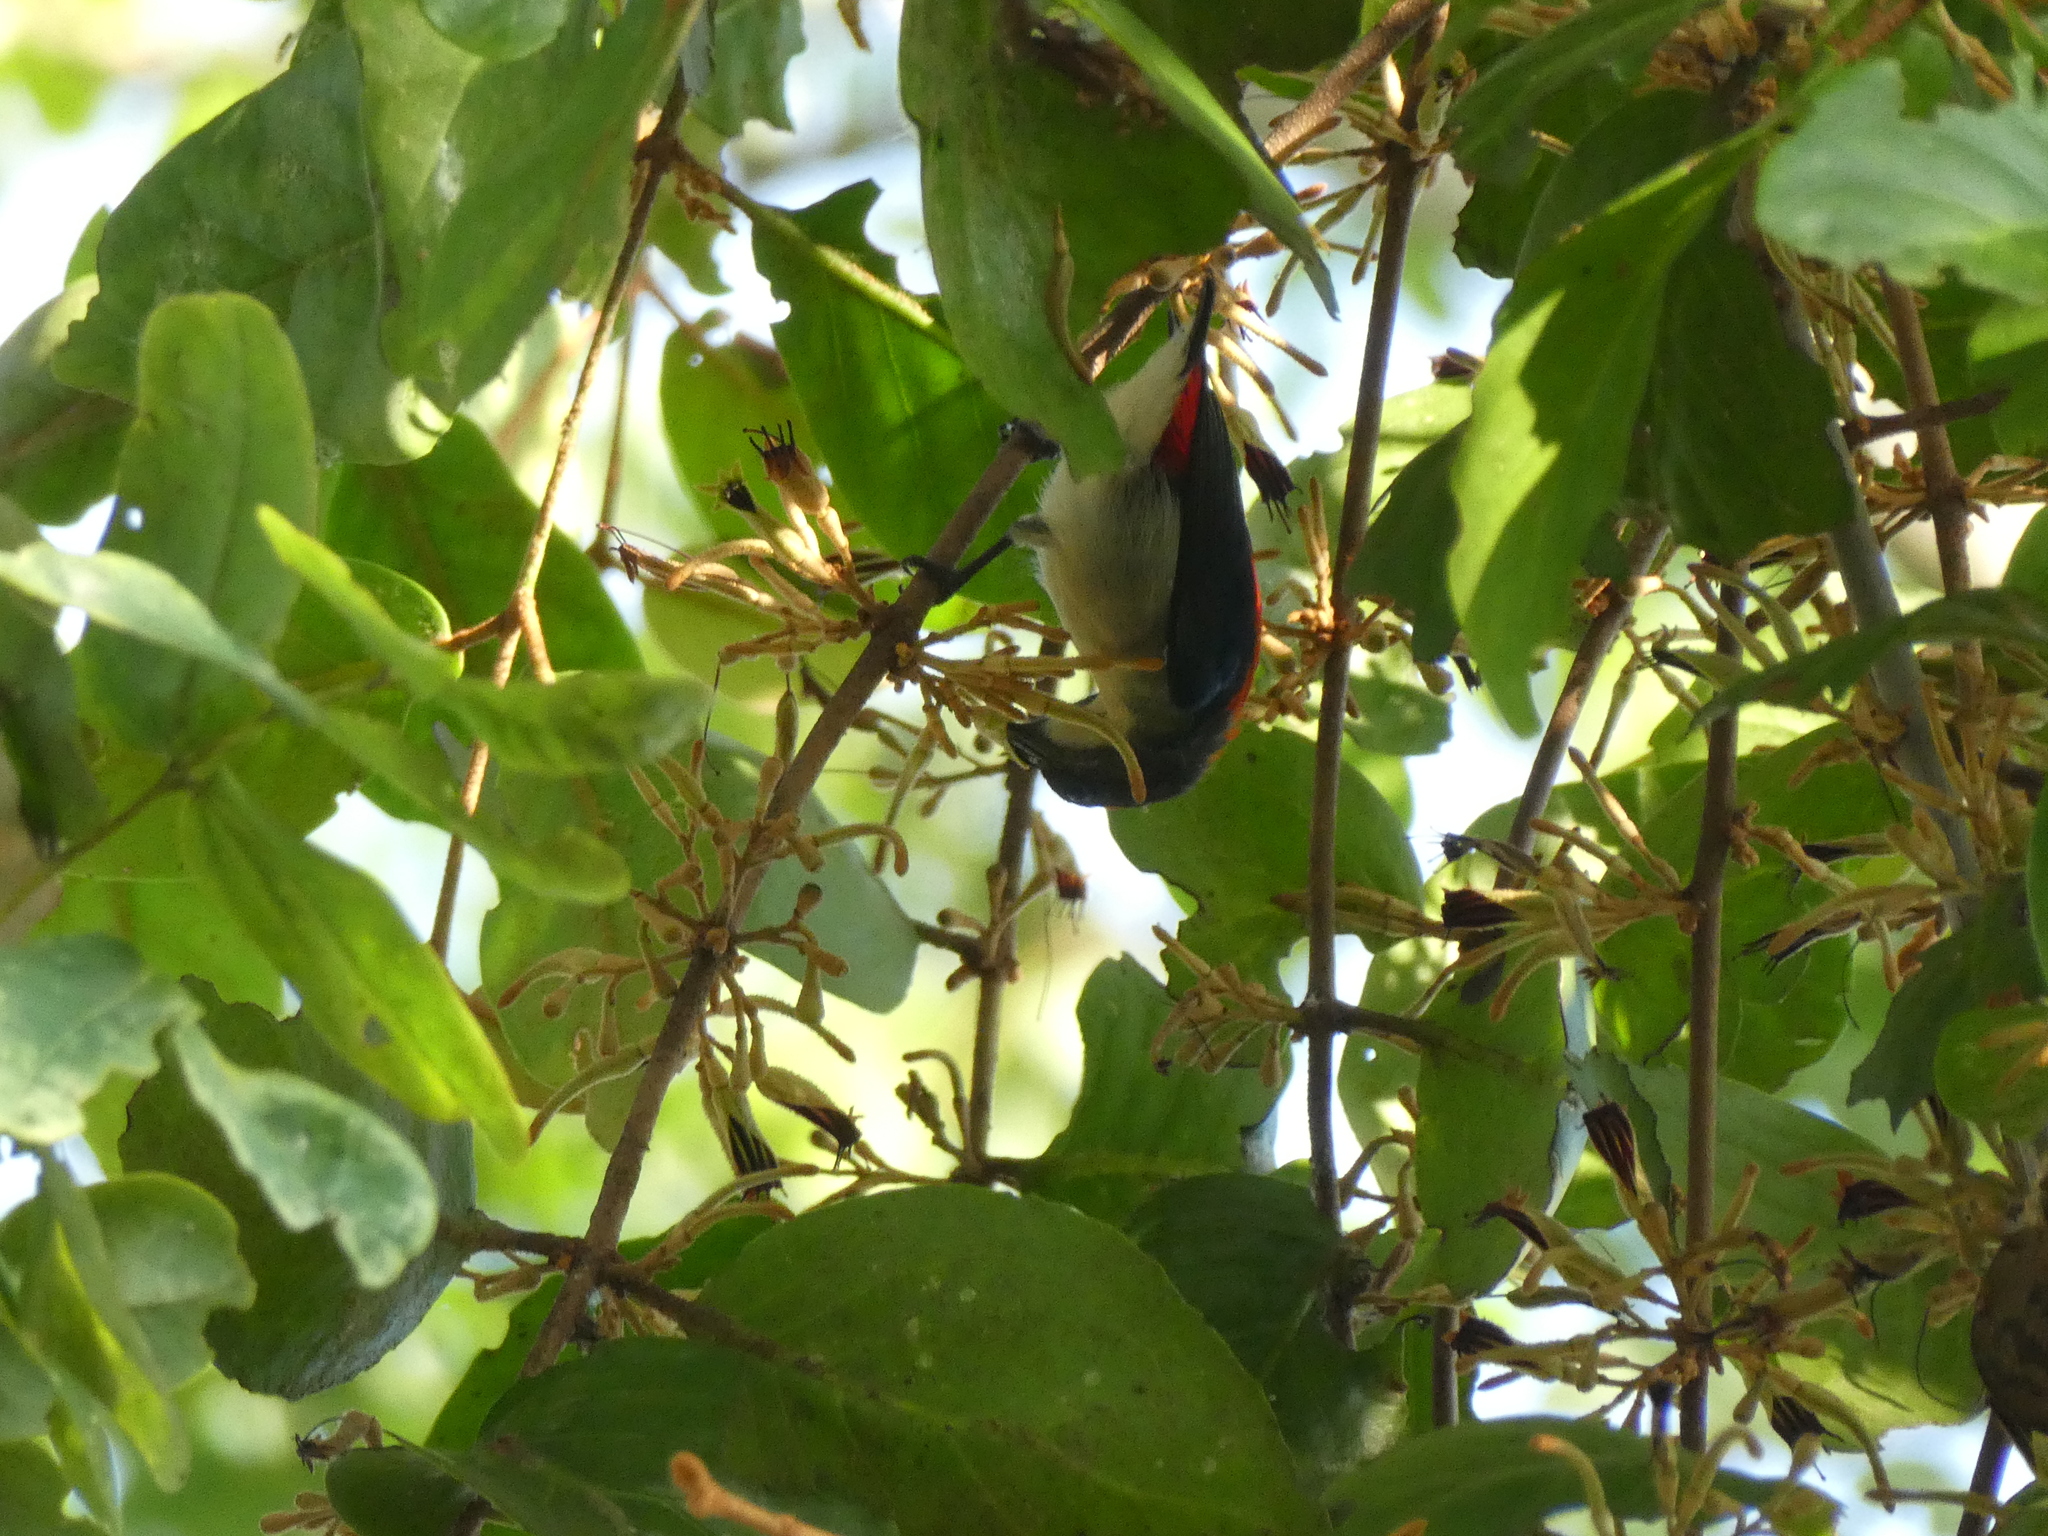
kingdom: Animalia
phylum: Chordata
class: Aves
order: Passeriformes
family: Dicaeidae
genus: Dicaeum
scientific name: Dicaeum cruentatum
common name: Scarlet-backed flowerpecker
